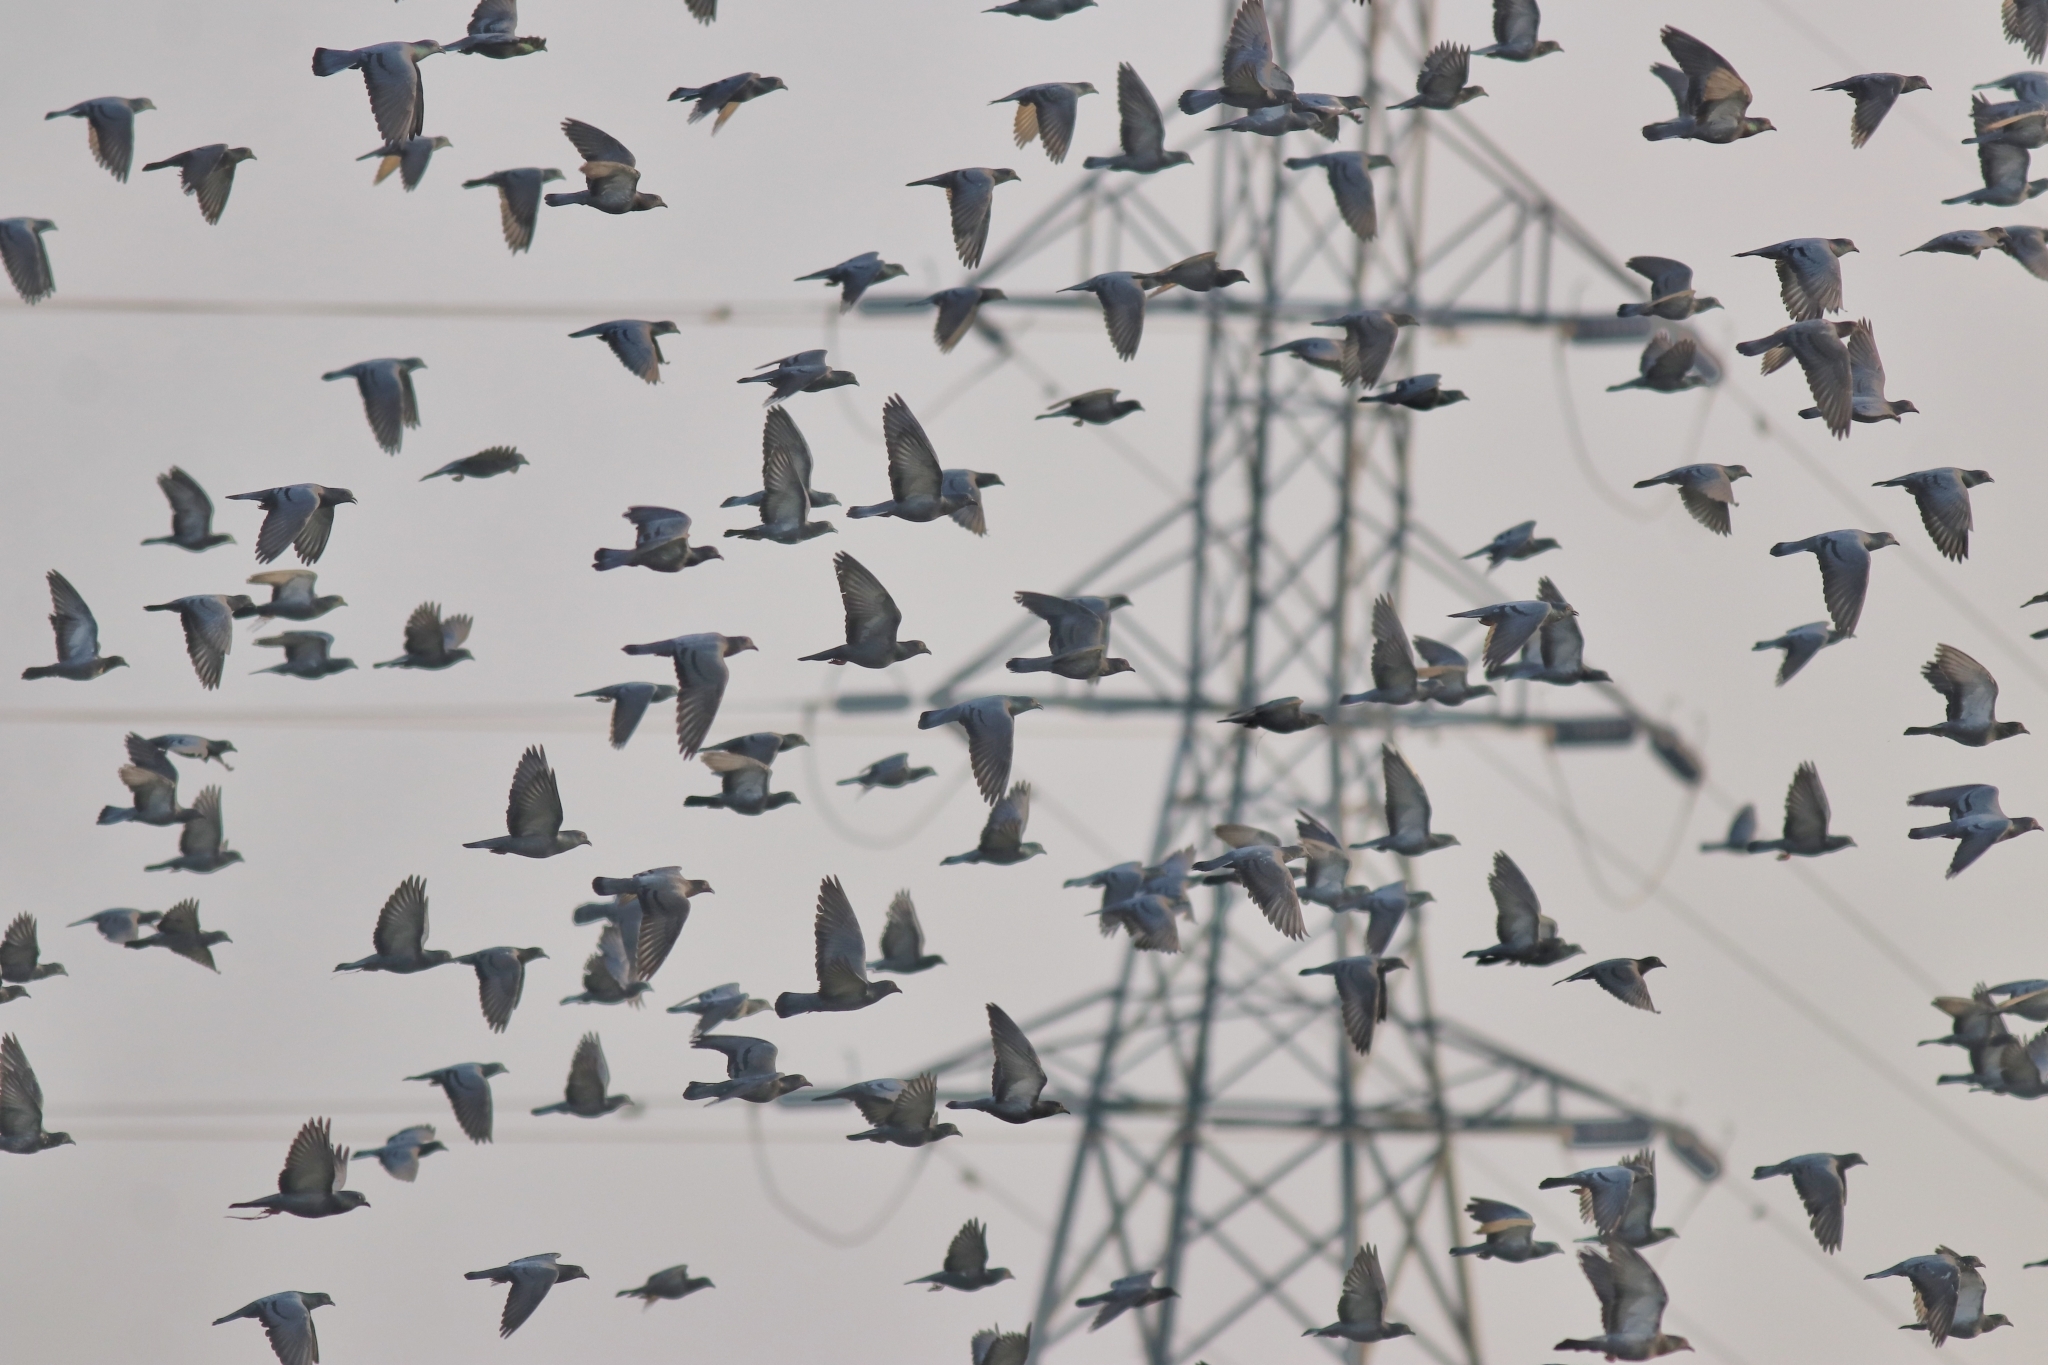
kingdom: Animalia
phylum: Chordata
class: Aves
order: Columbiformes
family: Columbidae
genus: Columba
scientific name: Columba livia
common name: Rock pigeon
